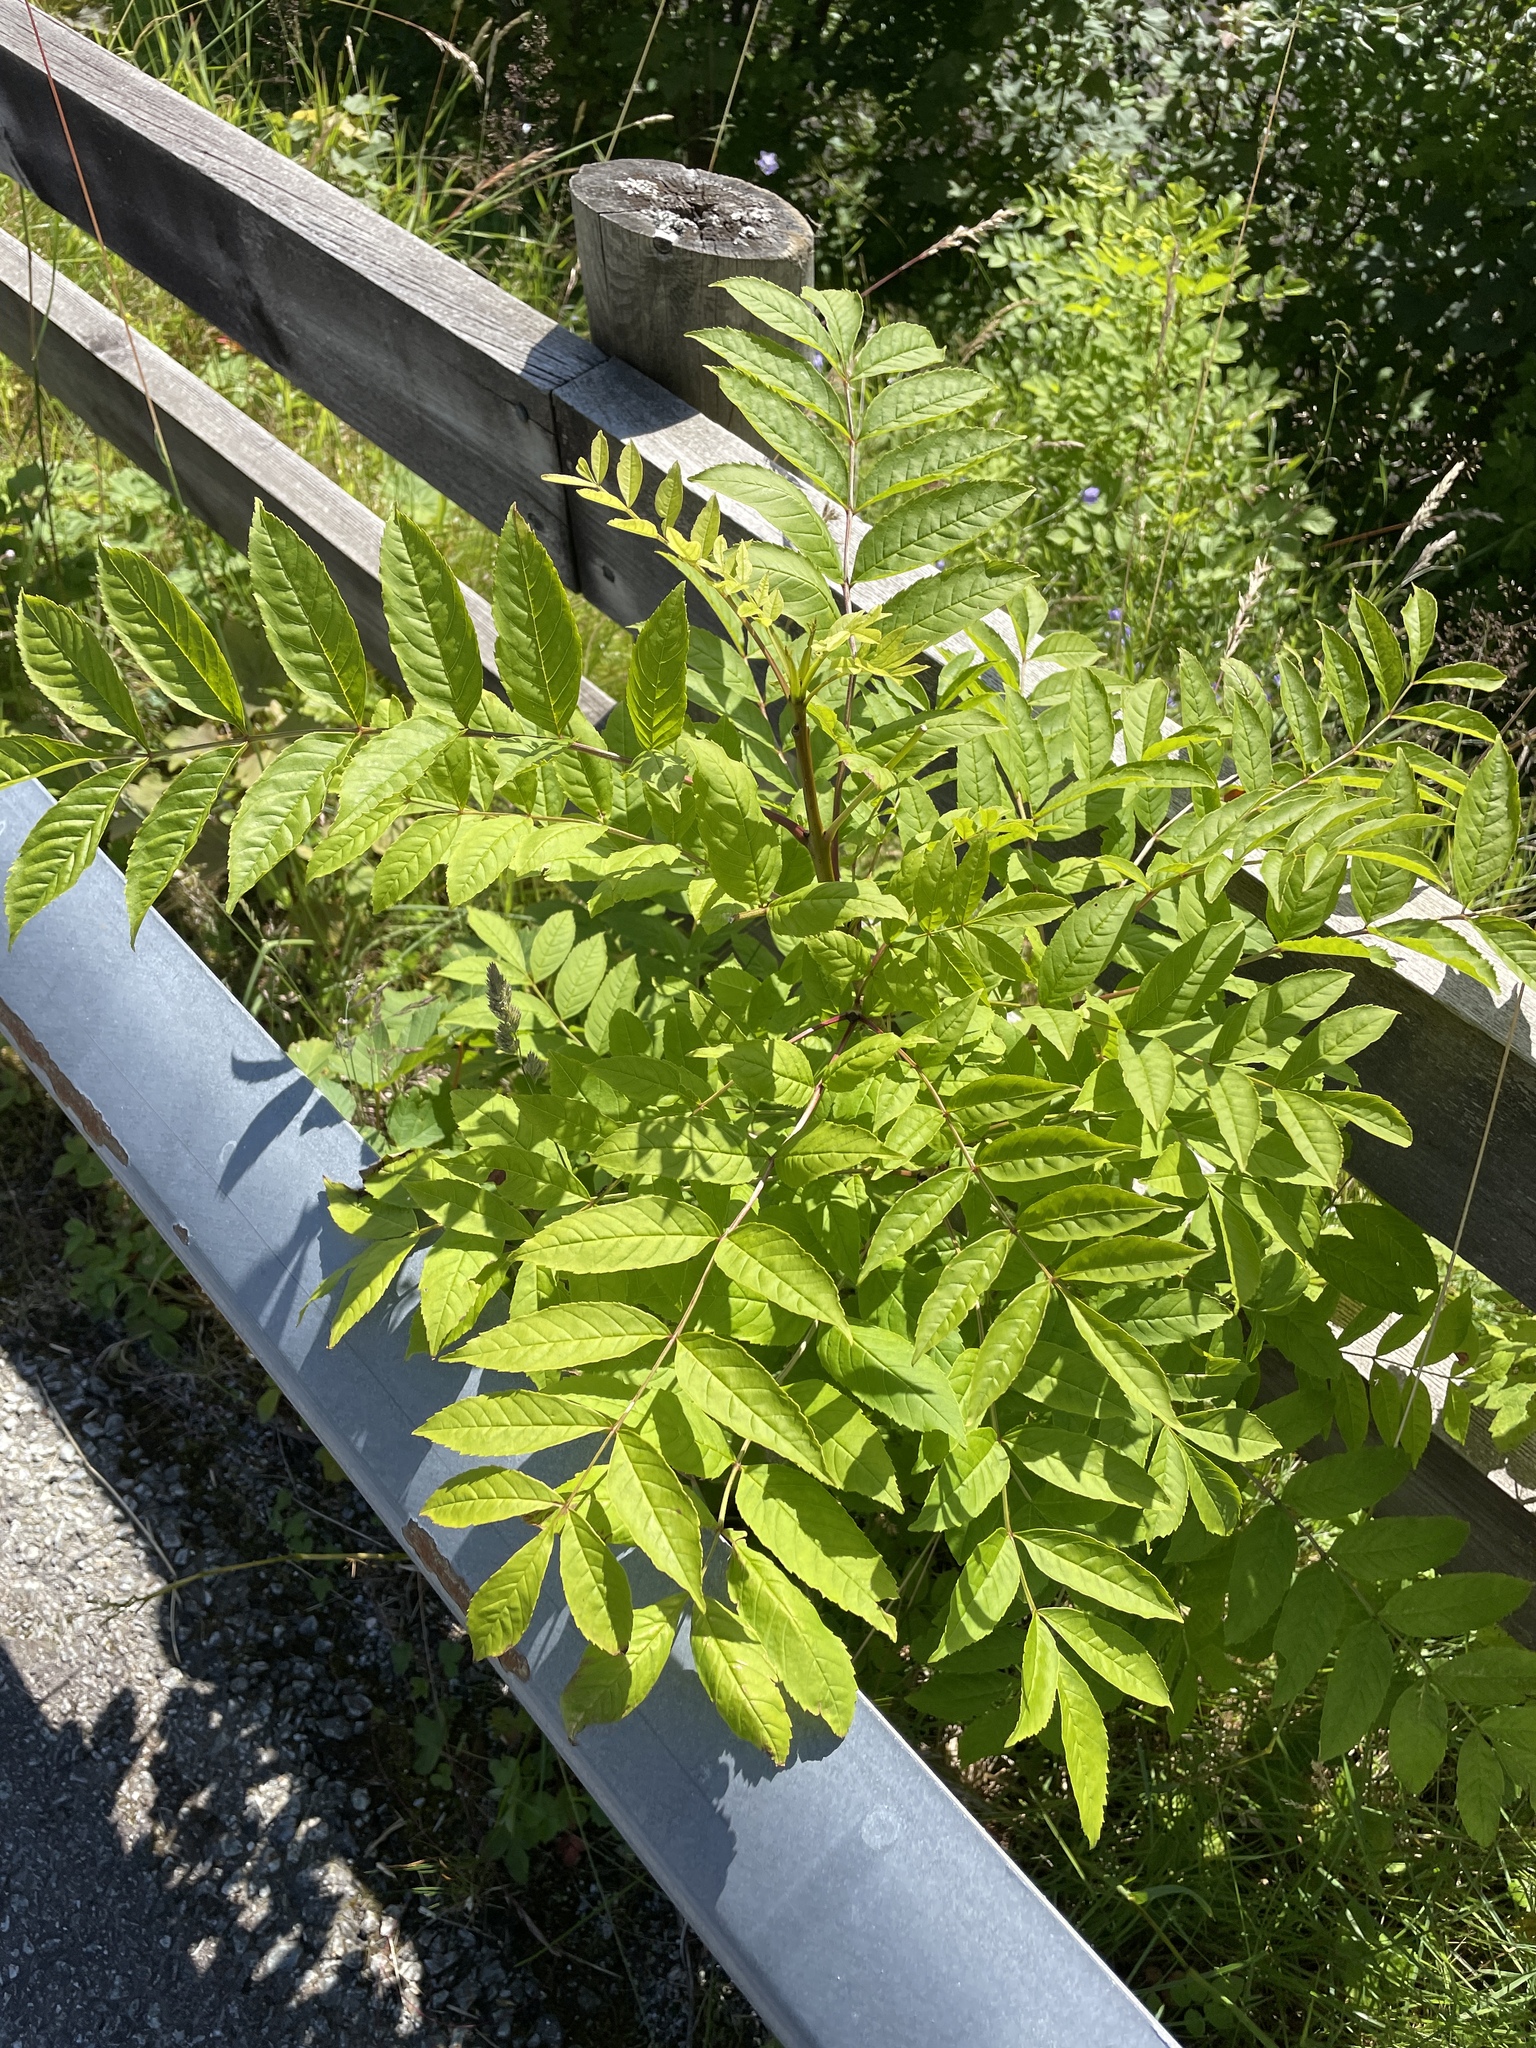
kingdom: Plantae
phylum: Tracheophyta
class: Magnoliopsida
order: Lamiales
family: Oleaceae
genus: Fraxinus
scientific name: Fraxinus excelsior
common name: European ash
